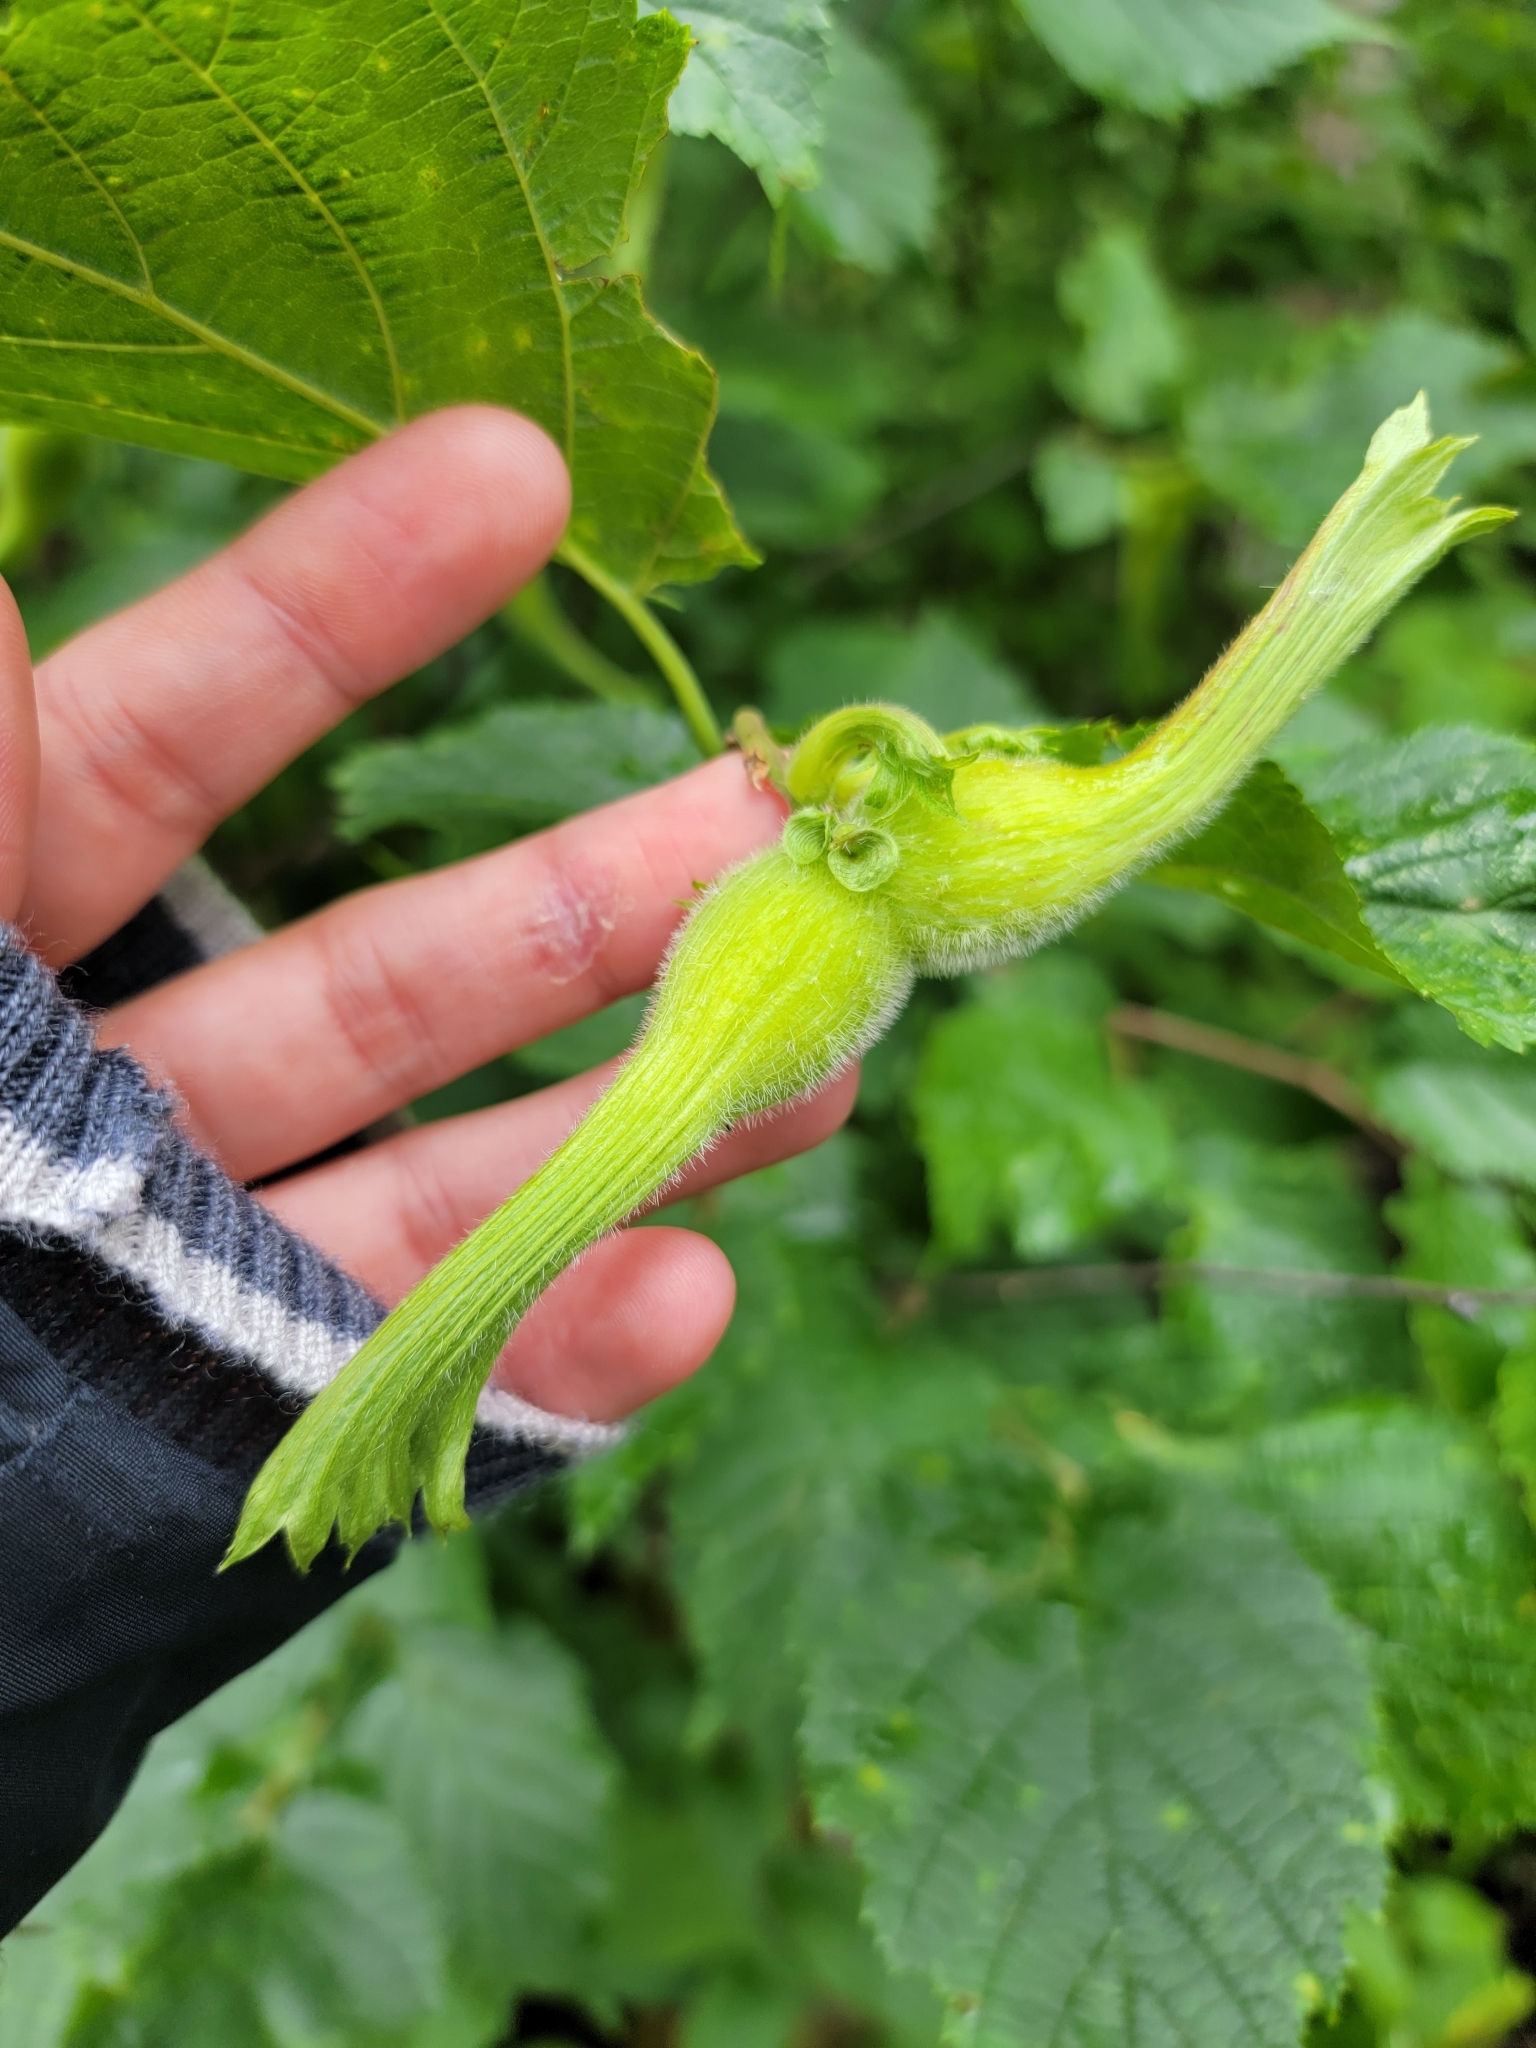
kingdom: Plantae
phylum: Tracheophyta
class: Magnoliopsida
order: Fagales
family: Betulaceae
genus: Corylus
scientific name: Corylus cornuta
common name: Beaked hazel
